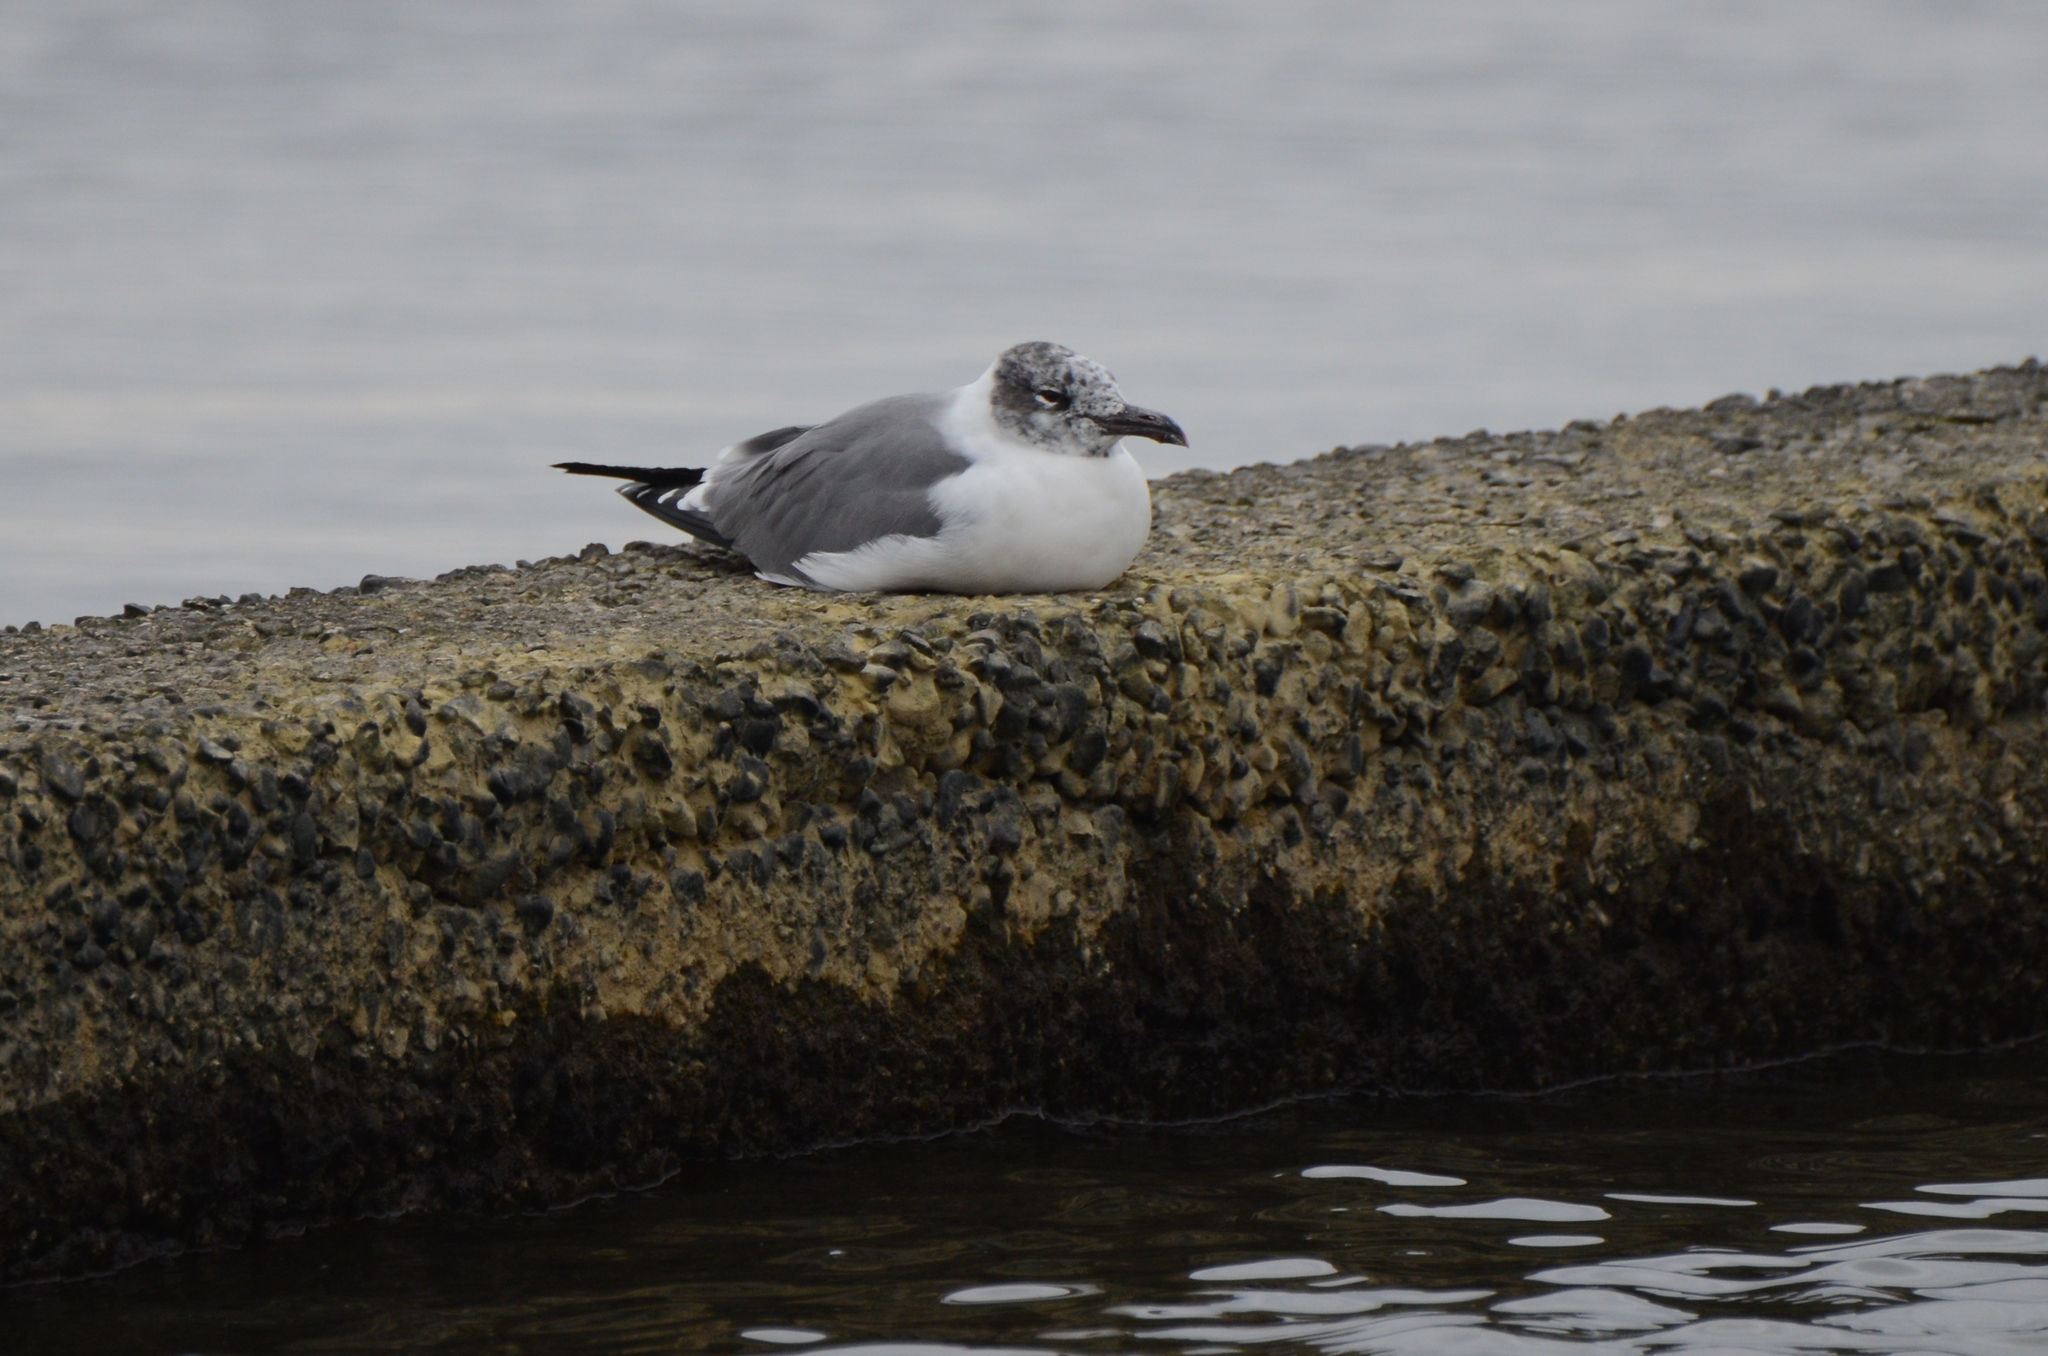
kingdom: Animalia
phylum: Chordata
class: Aves
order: Charadriiformes
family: Laridae
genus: Leucophaeus
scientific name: Leucophaeus atricilla
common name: Laughing gull
